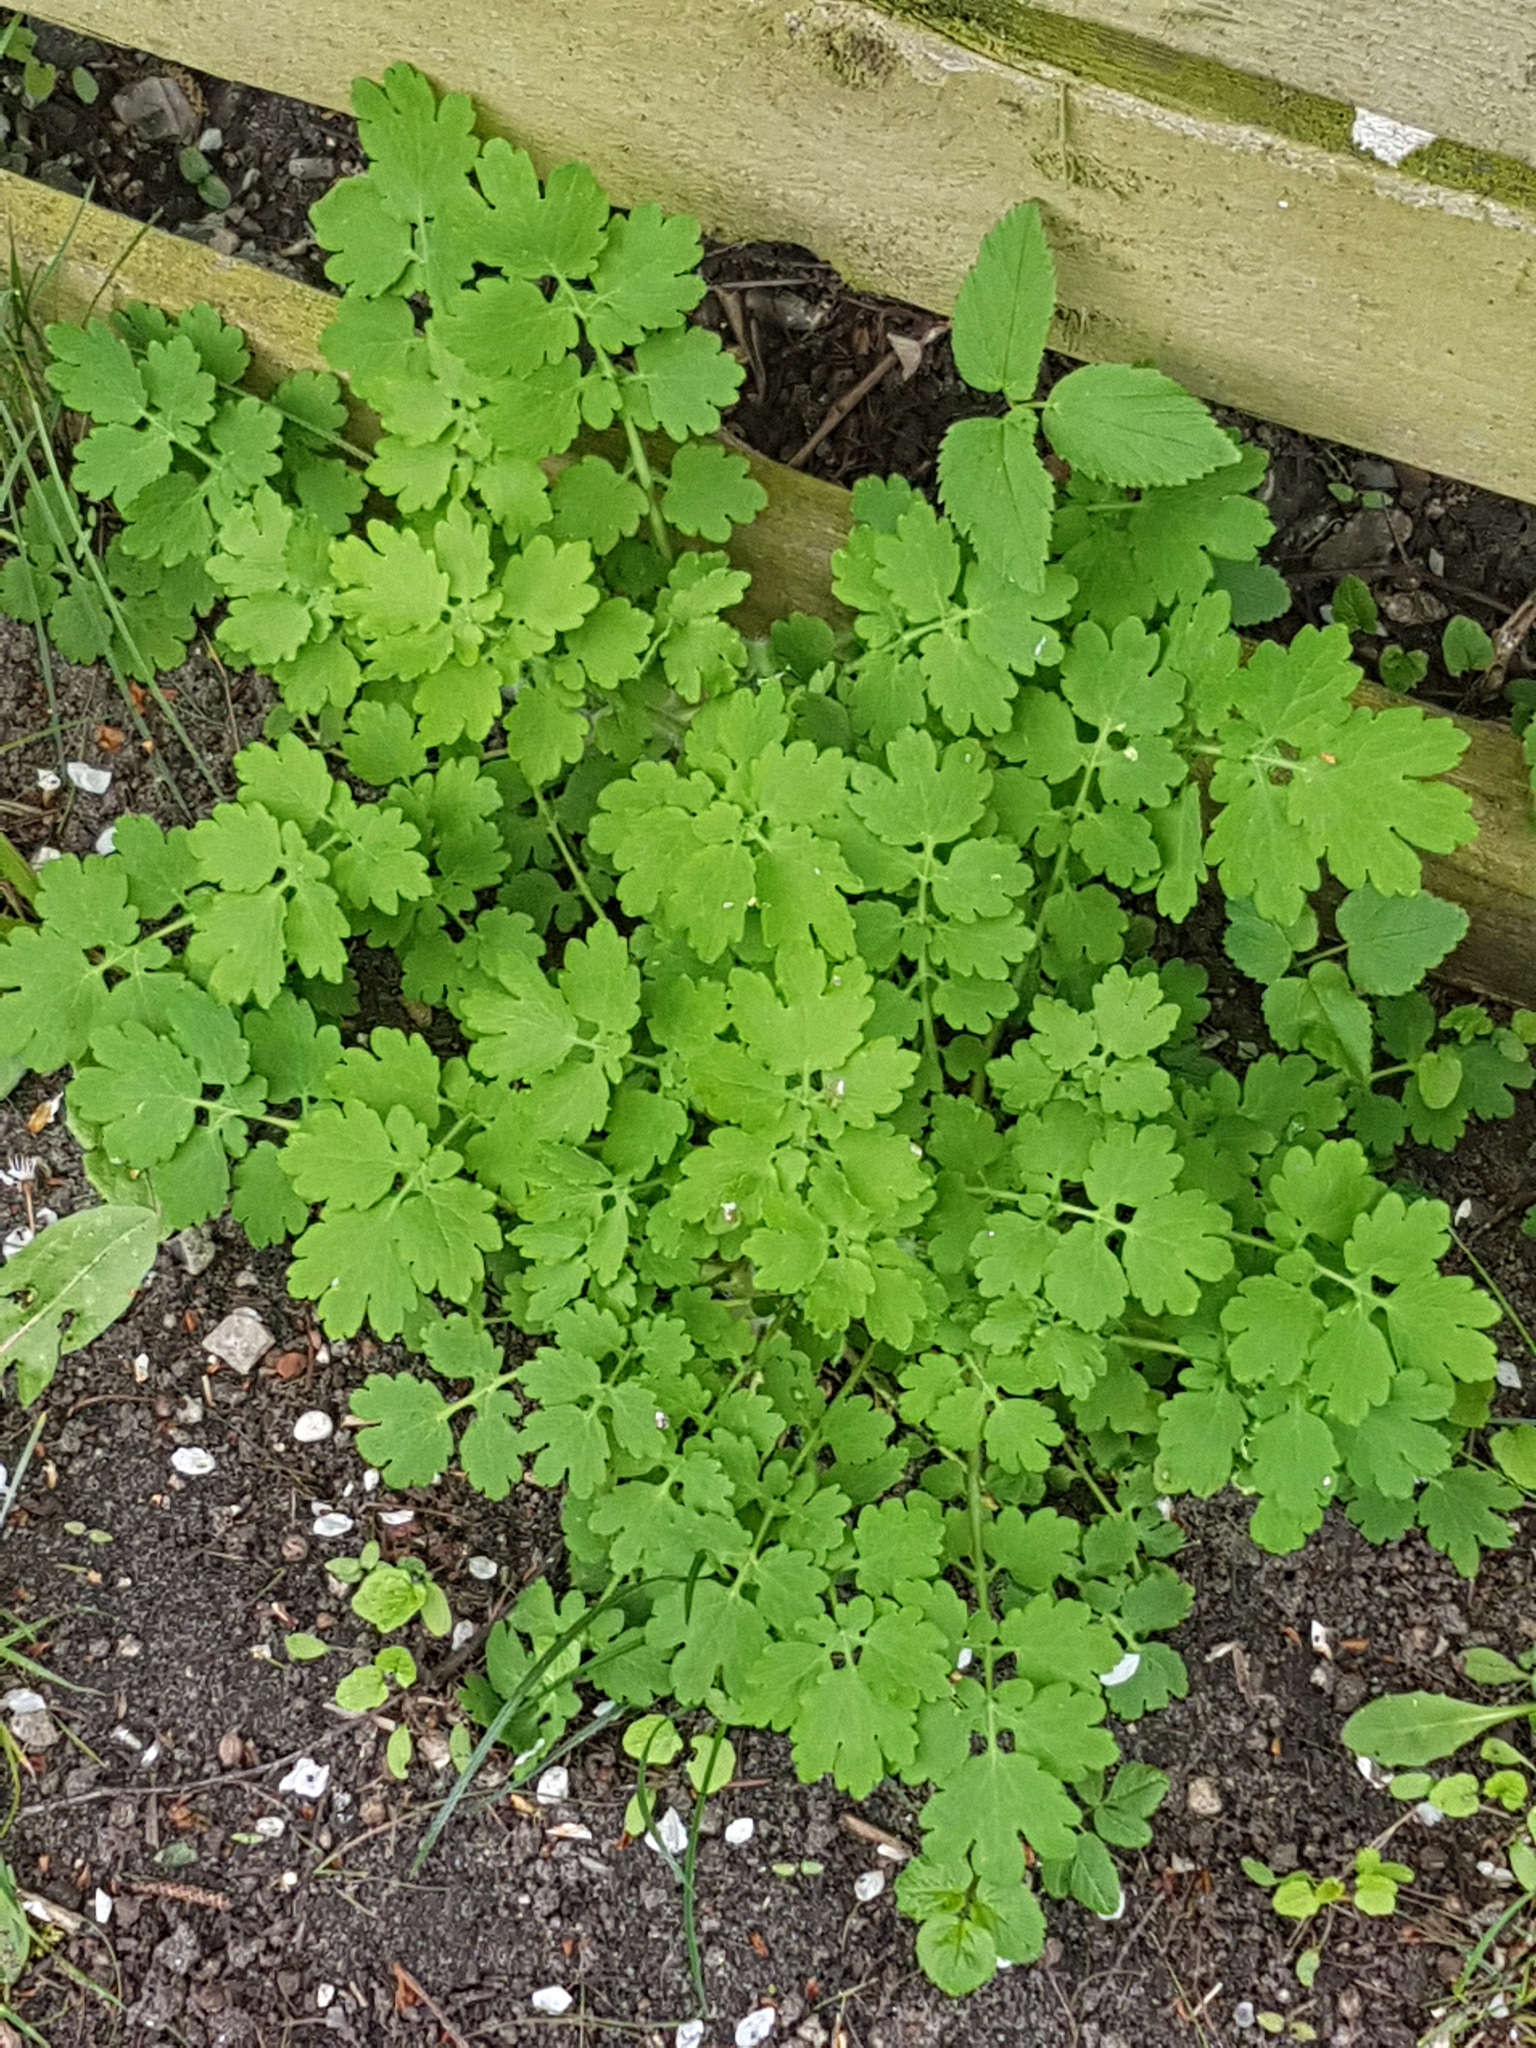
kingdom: Plantae
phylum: Tracheophyta
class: Magnoliopsida
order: Ranunculales
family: Papaveraceae
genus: Chelidonium
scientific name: Chelidonium majus
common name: Greater celandine
